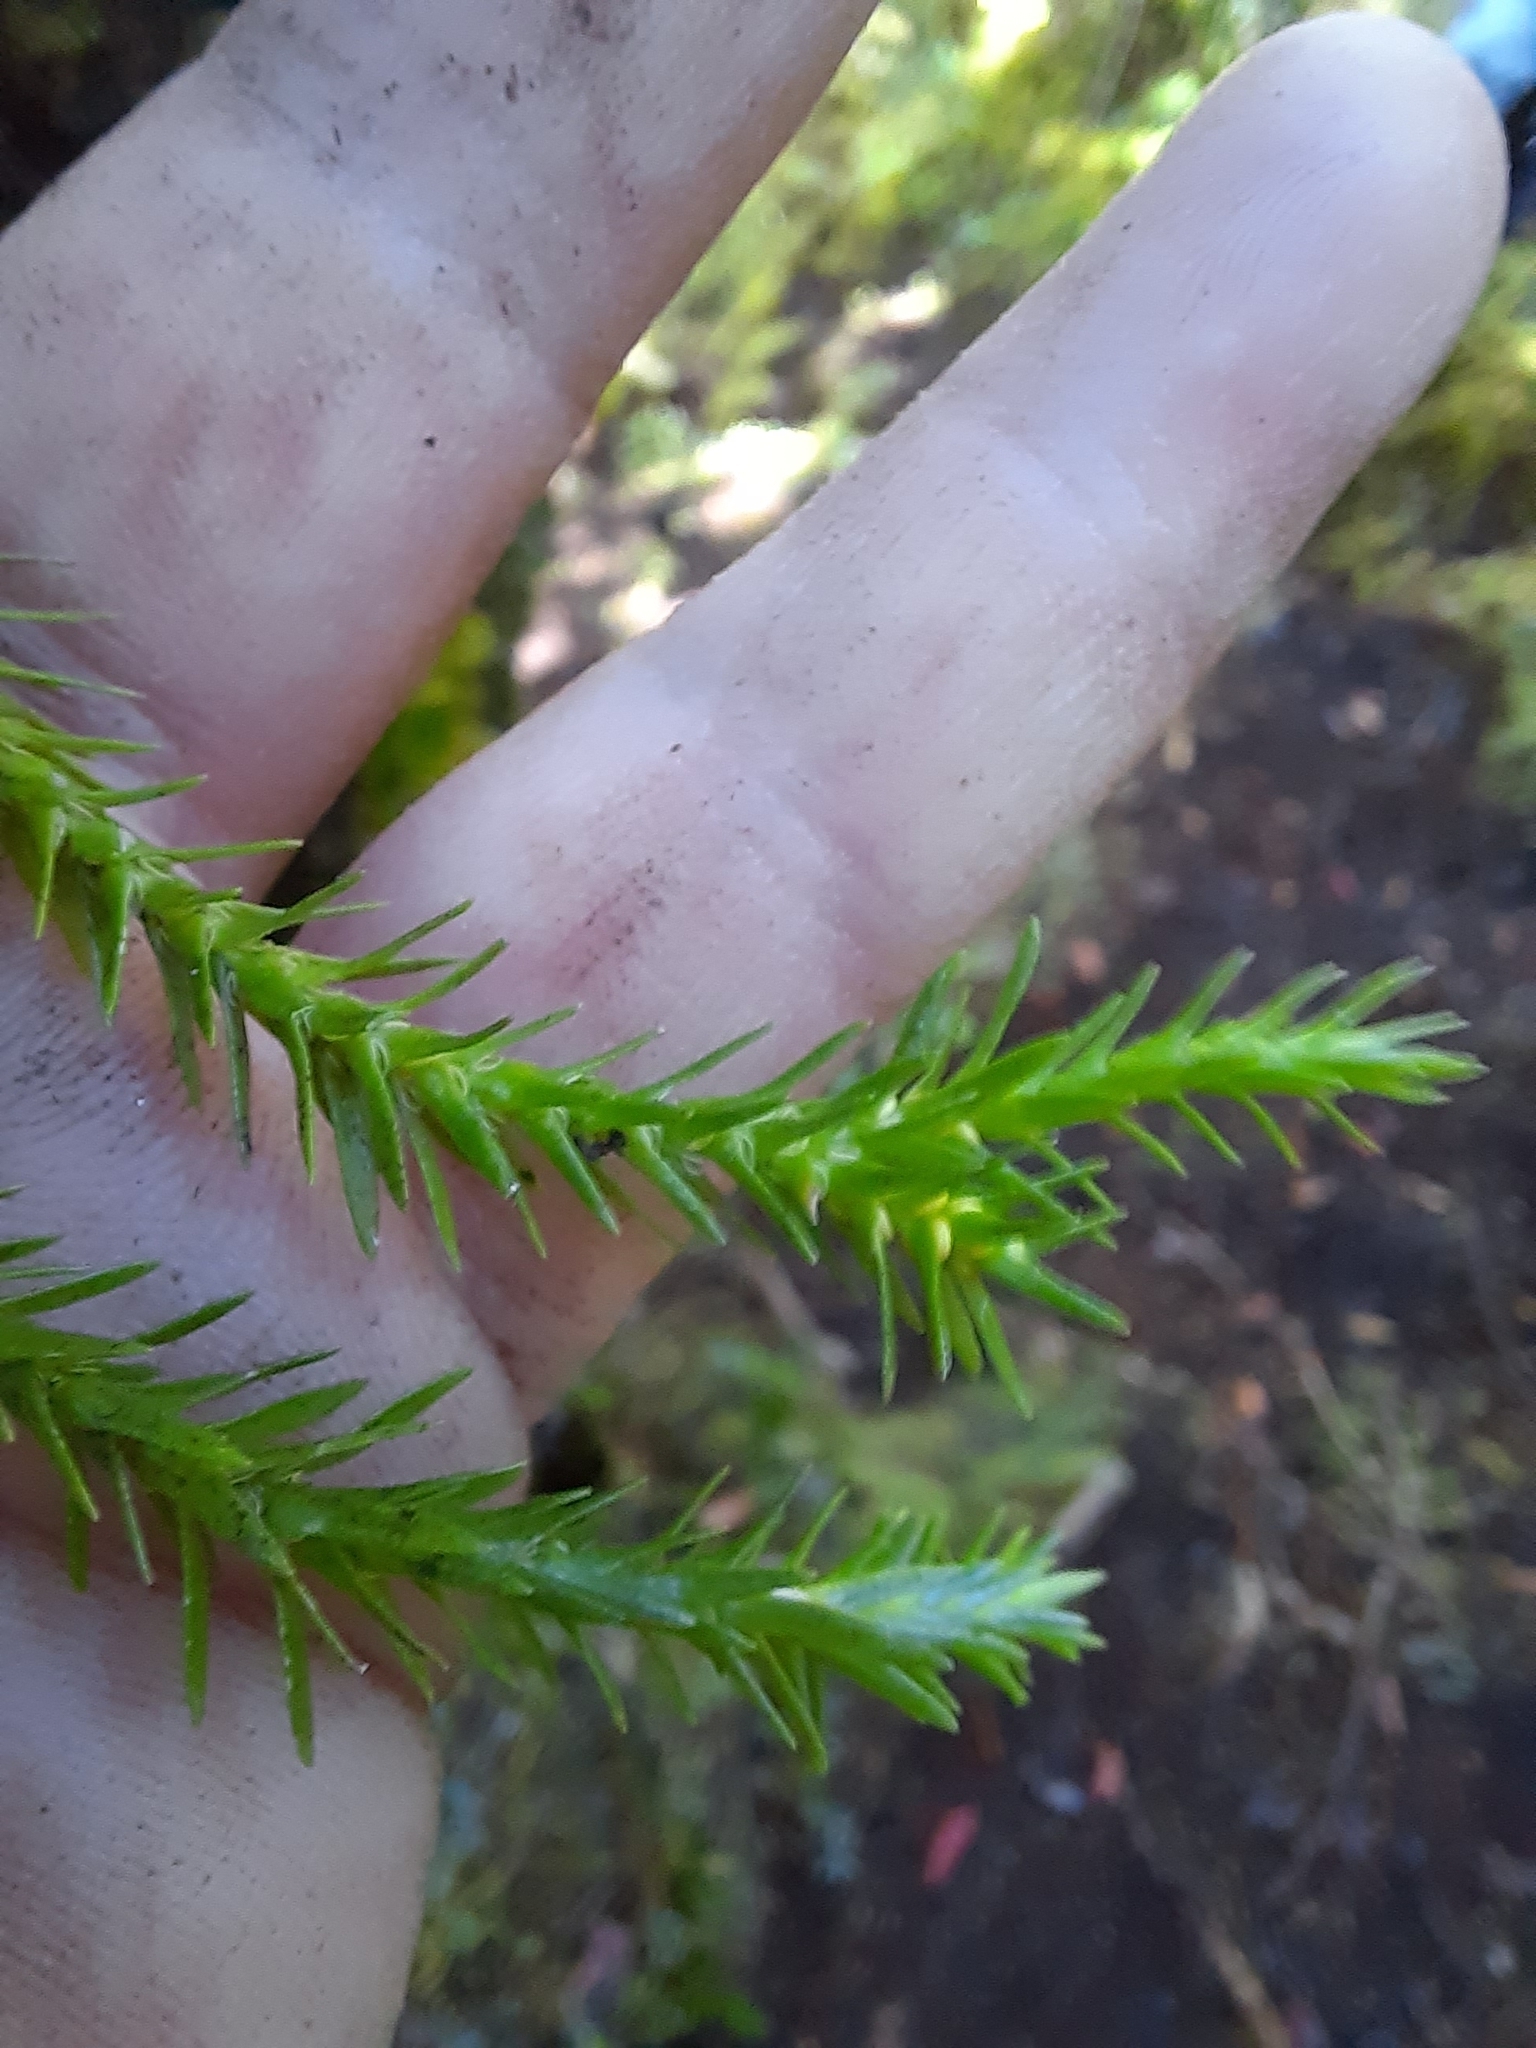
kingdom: Plantae
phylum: Tracheophyta
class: Lycopodiopsida
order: Lycopodiales
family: Lycopodiaceae
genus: Phlegmariurus
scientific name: Phlegmariurus varius
